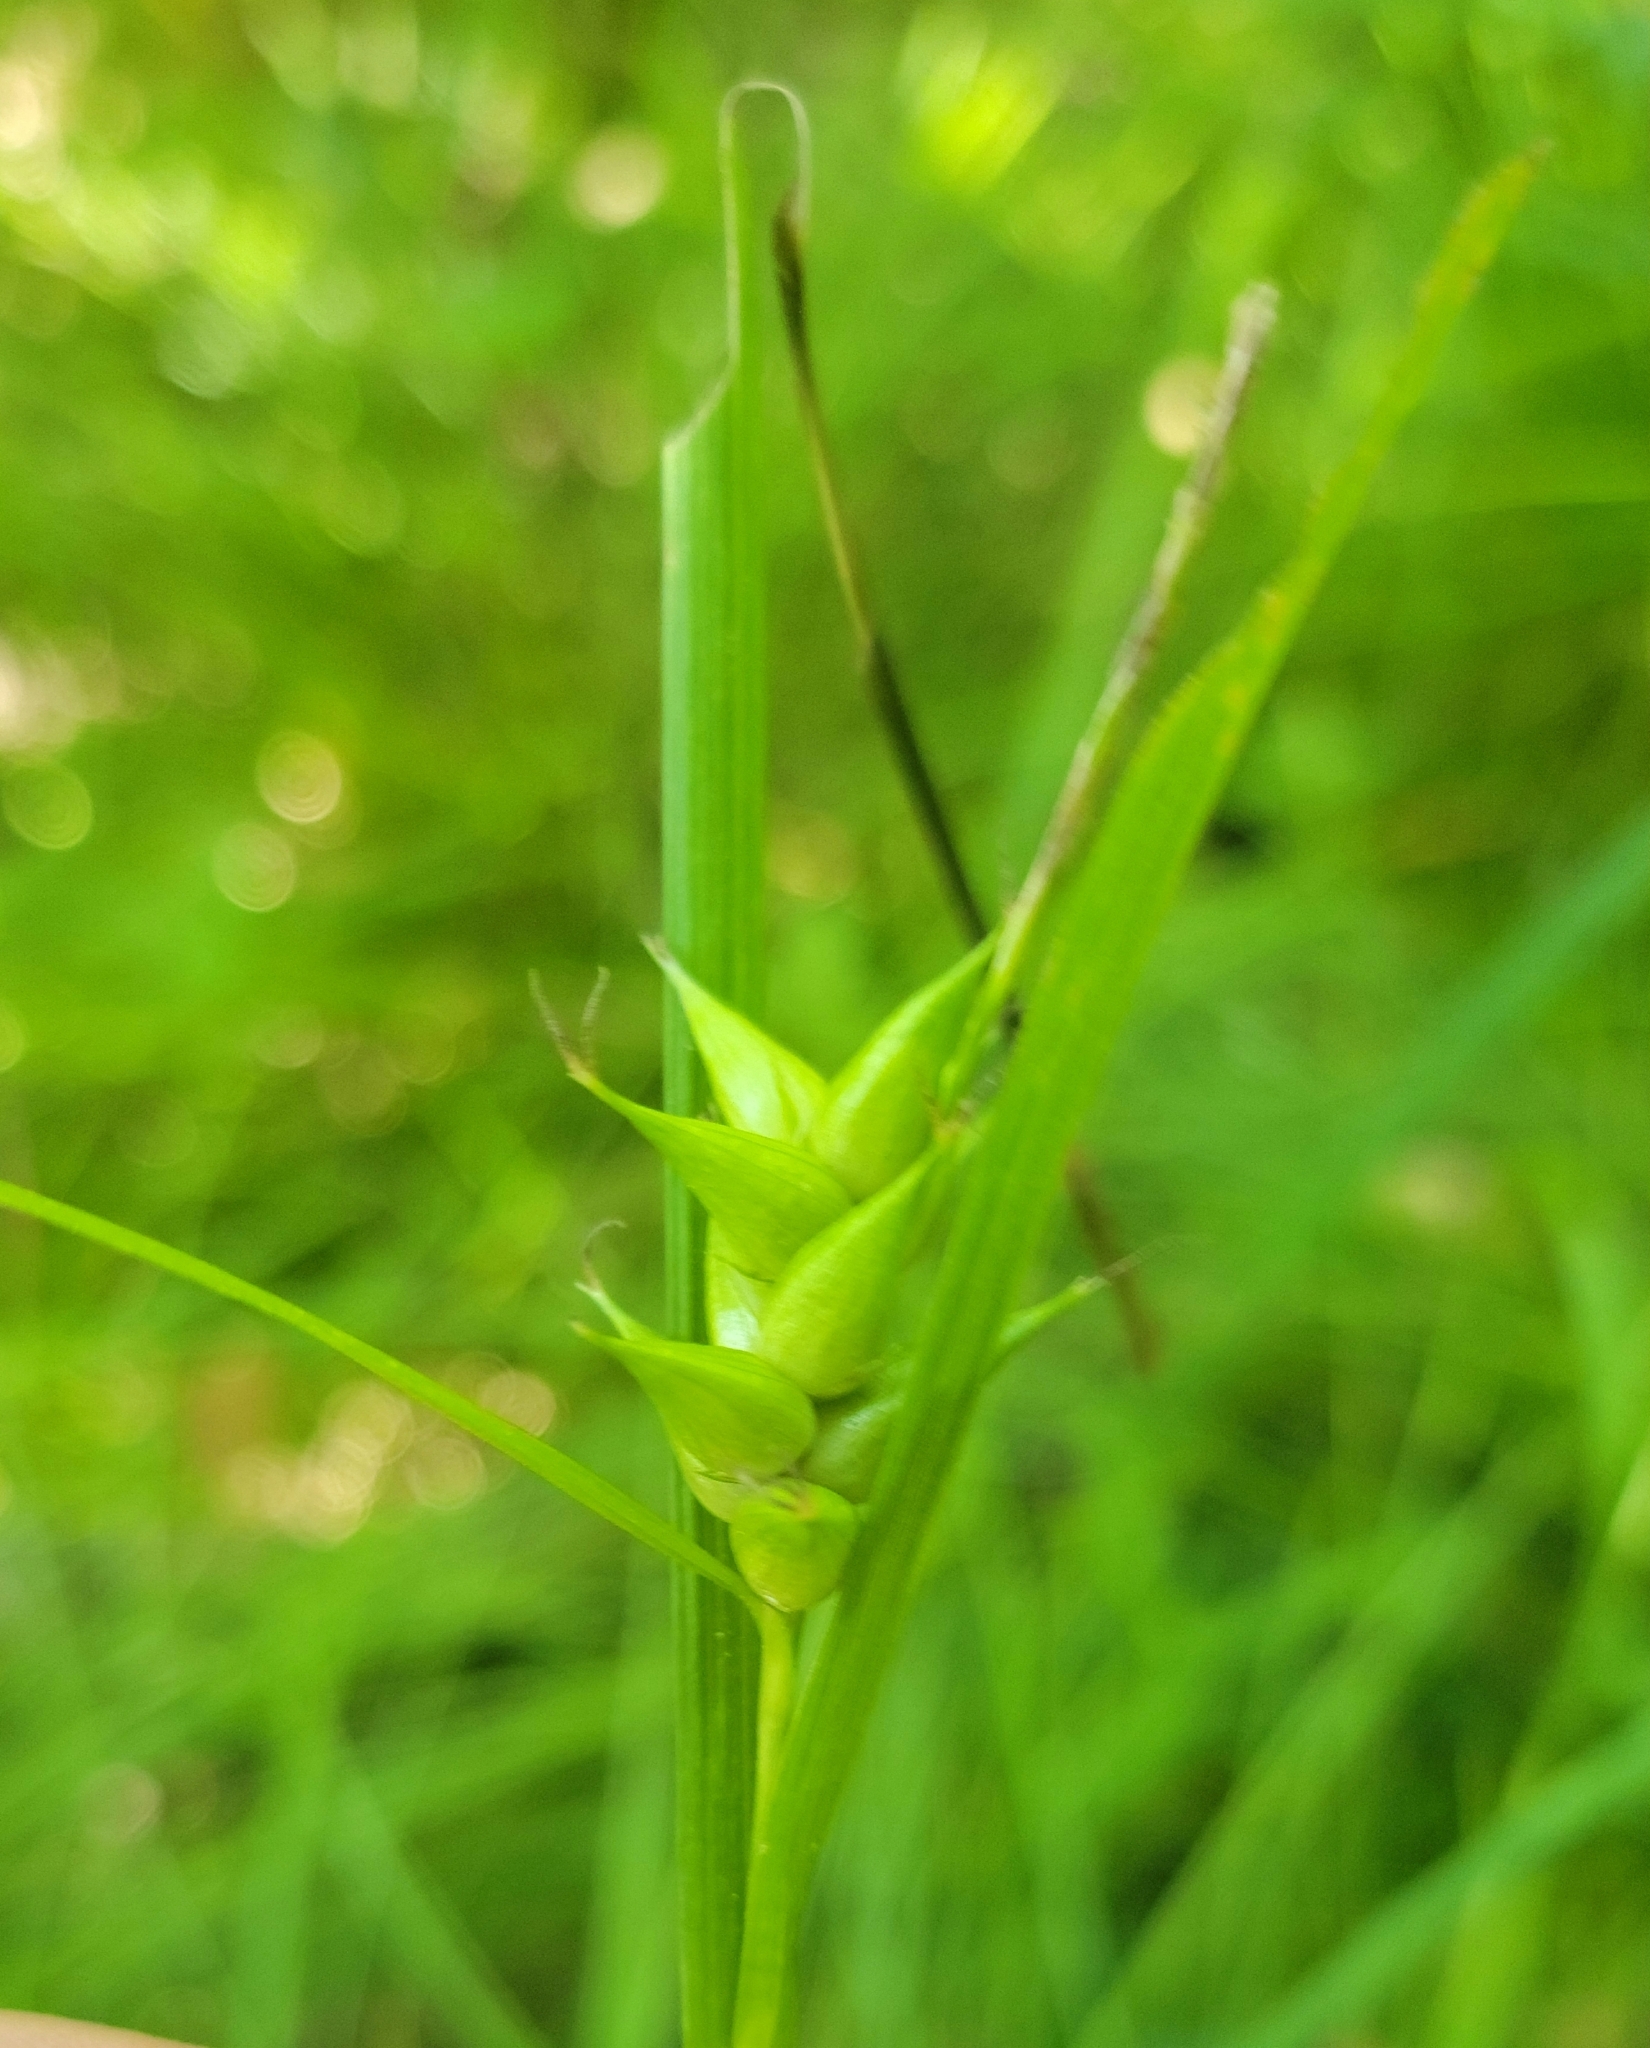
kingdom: Plantae
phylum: Tracheophyta
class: Liliopsida
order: Poales
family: Cyperaceae
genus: Carex
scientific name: Carex intumescens
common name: Greater bladder sedge
